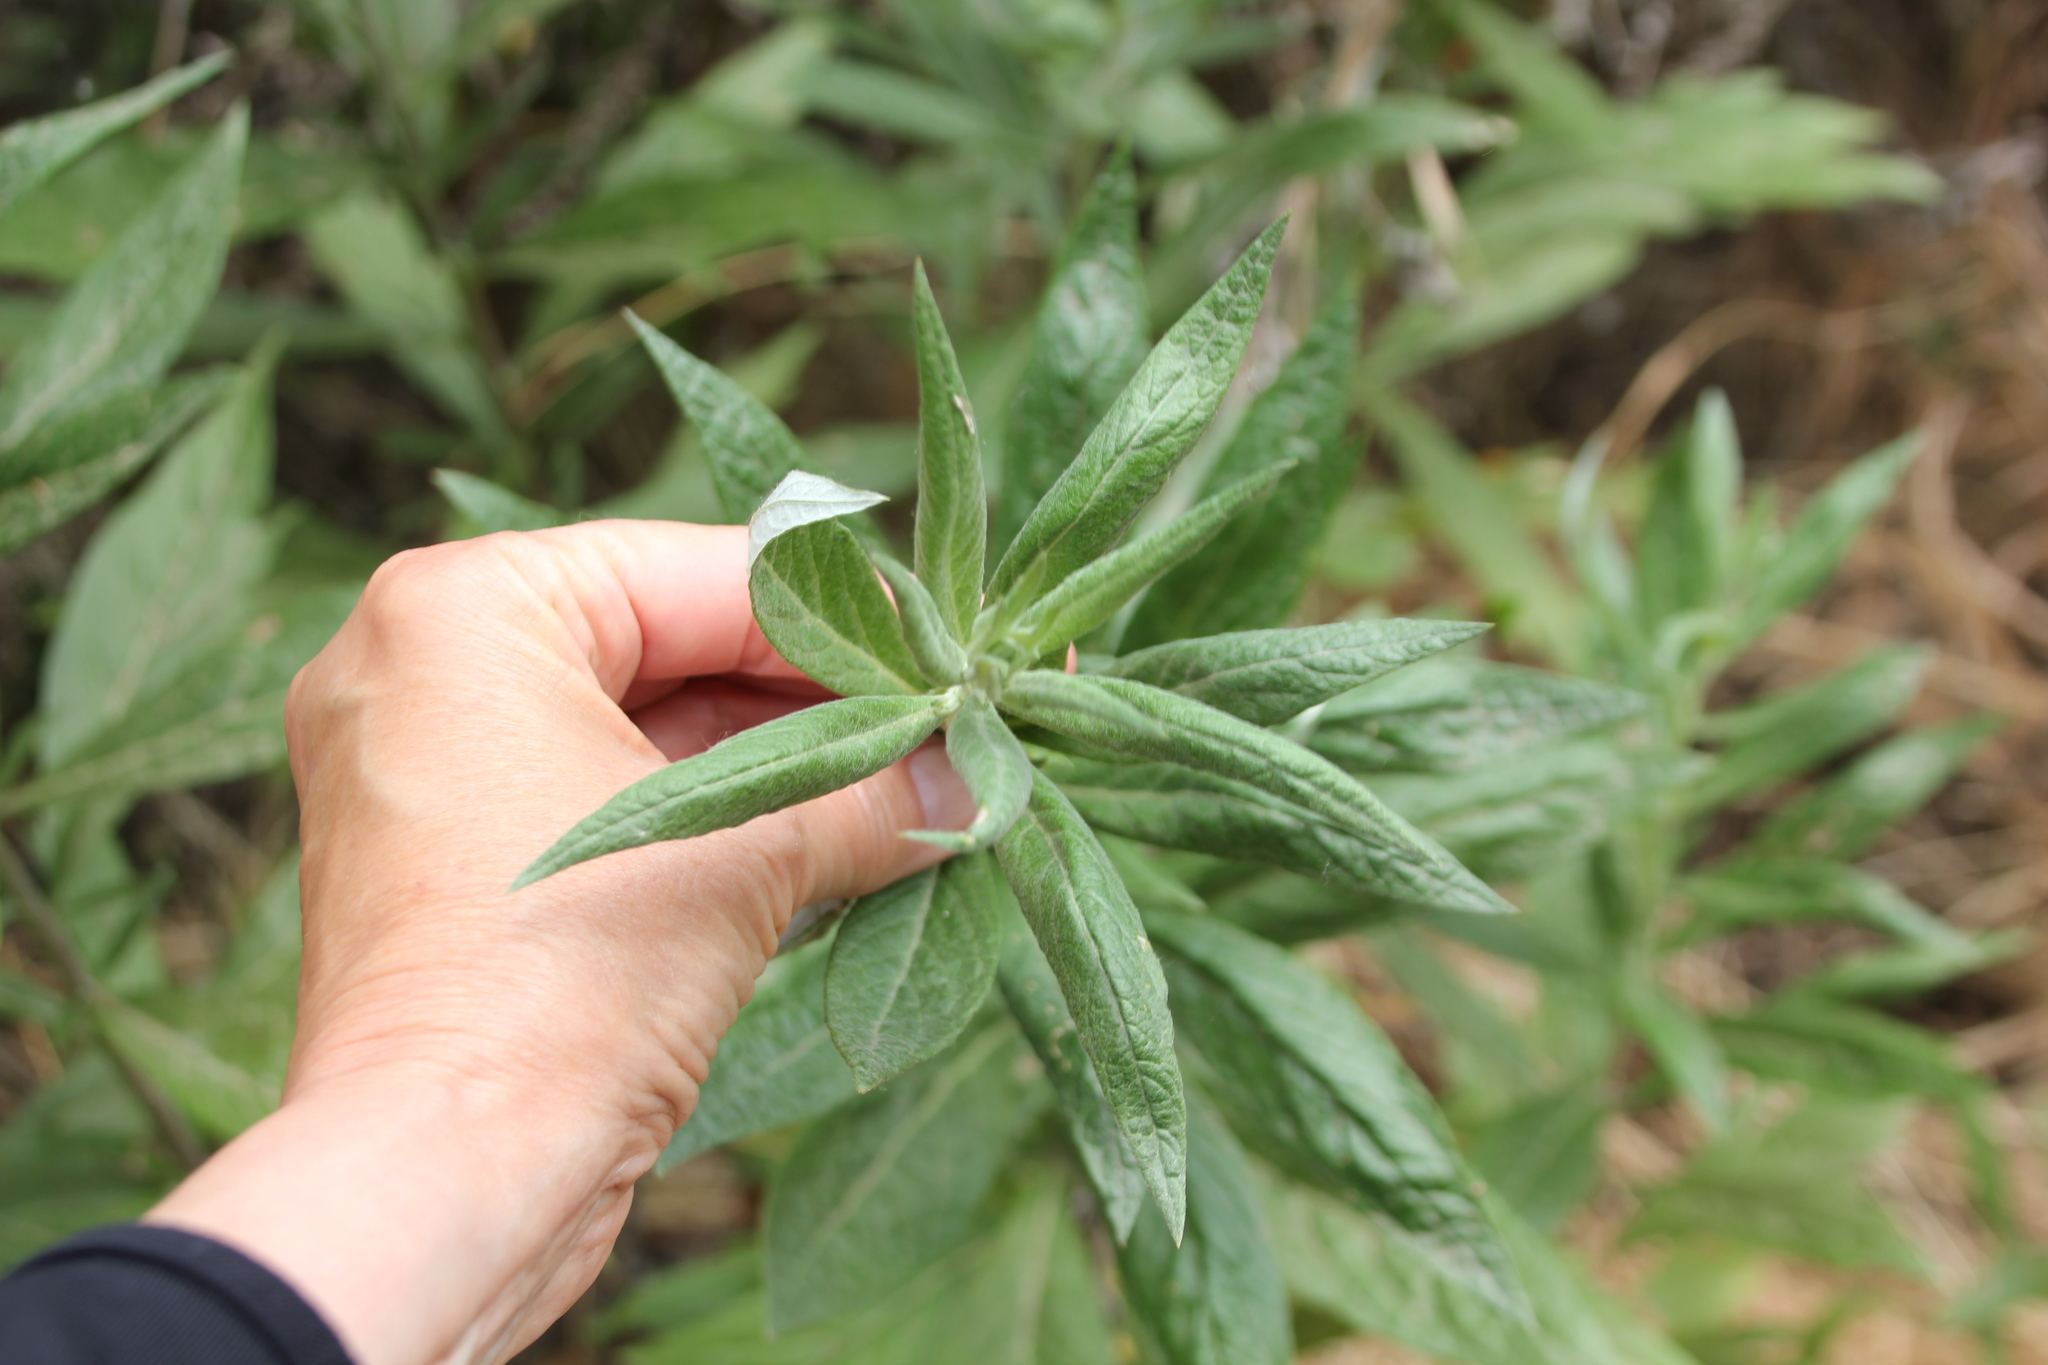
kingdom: Plantae
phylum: Tracheophyta
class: Magnoliopsida
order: Asterales
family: Asteraceae
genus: Artemisia
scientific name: Artemisia douglasiana
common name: Northwest mugwort
